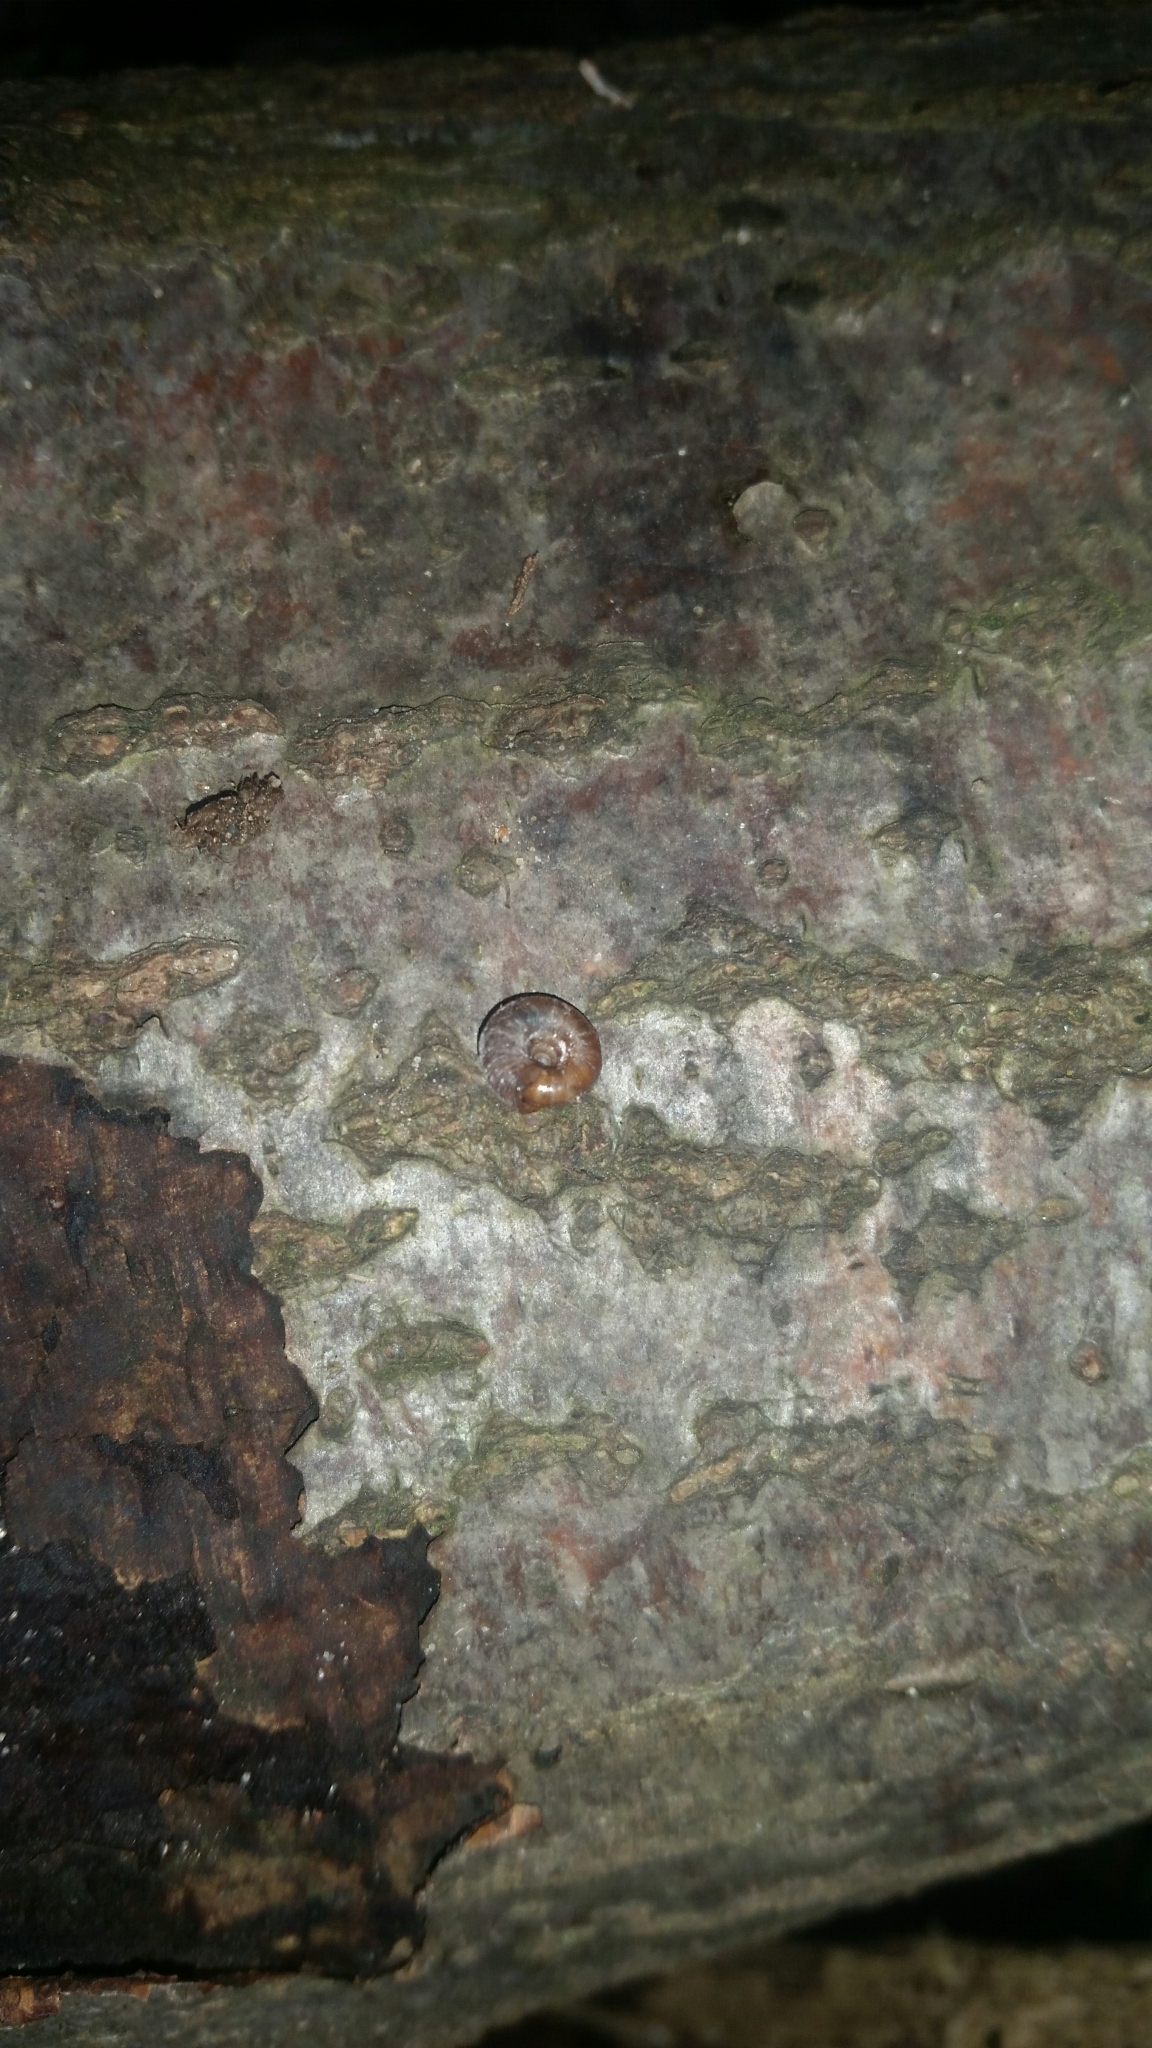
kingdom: Animalia
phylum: Mollusca
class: Gastropoda
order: Stylommatophora
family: Discidae
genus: Discus
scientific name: Discus rotundatus
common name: Rounded snail
